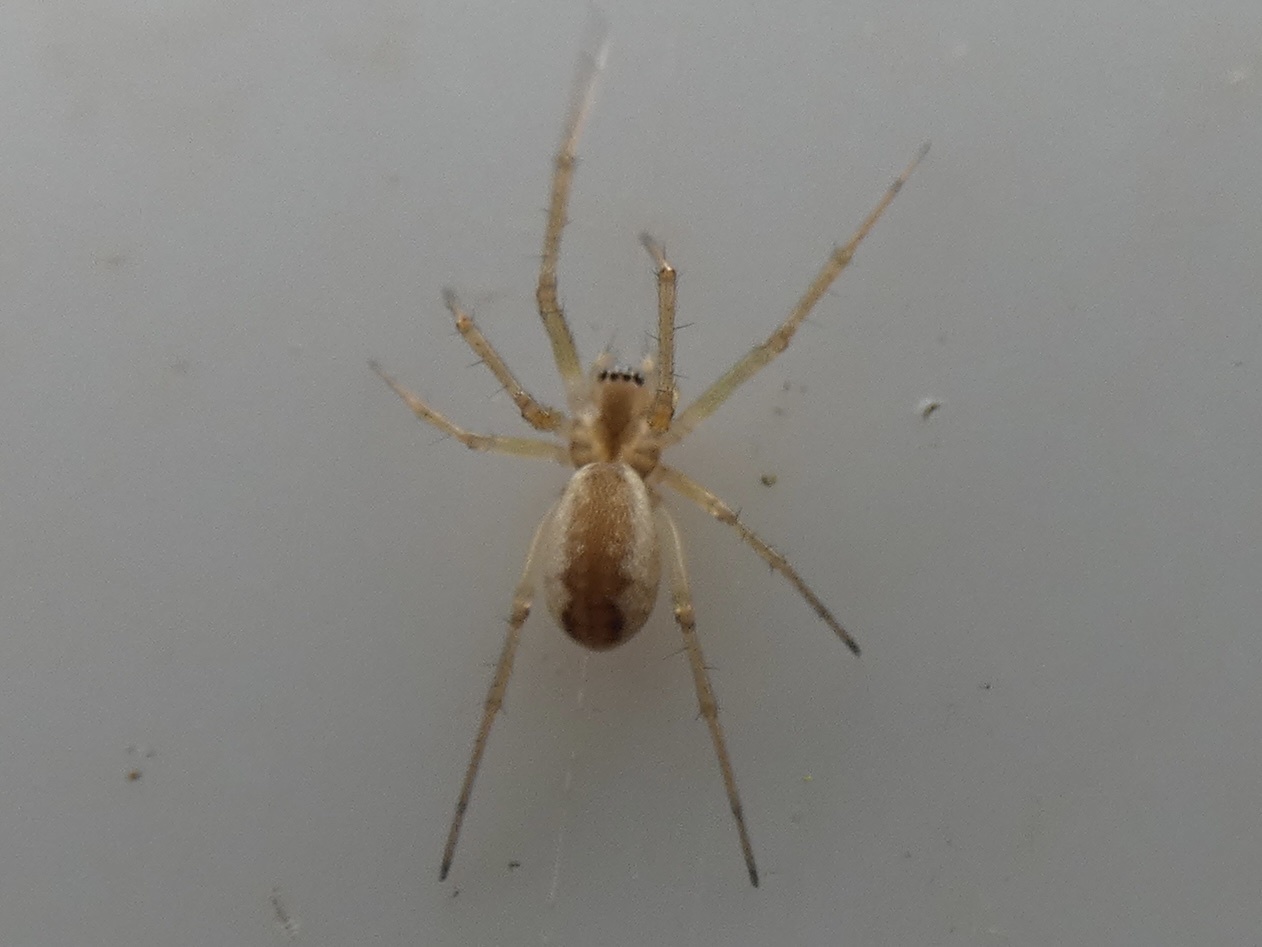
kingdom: Animalia
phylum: Arthropoda
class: Arachnida
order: Araneae
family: Linyphiidae
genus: Neriene
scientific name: Neriene peltata
